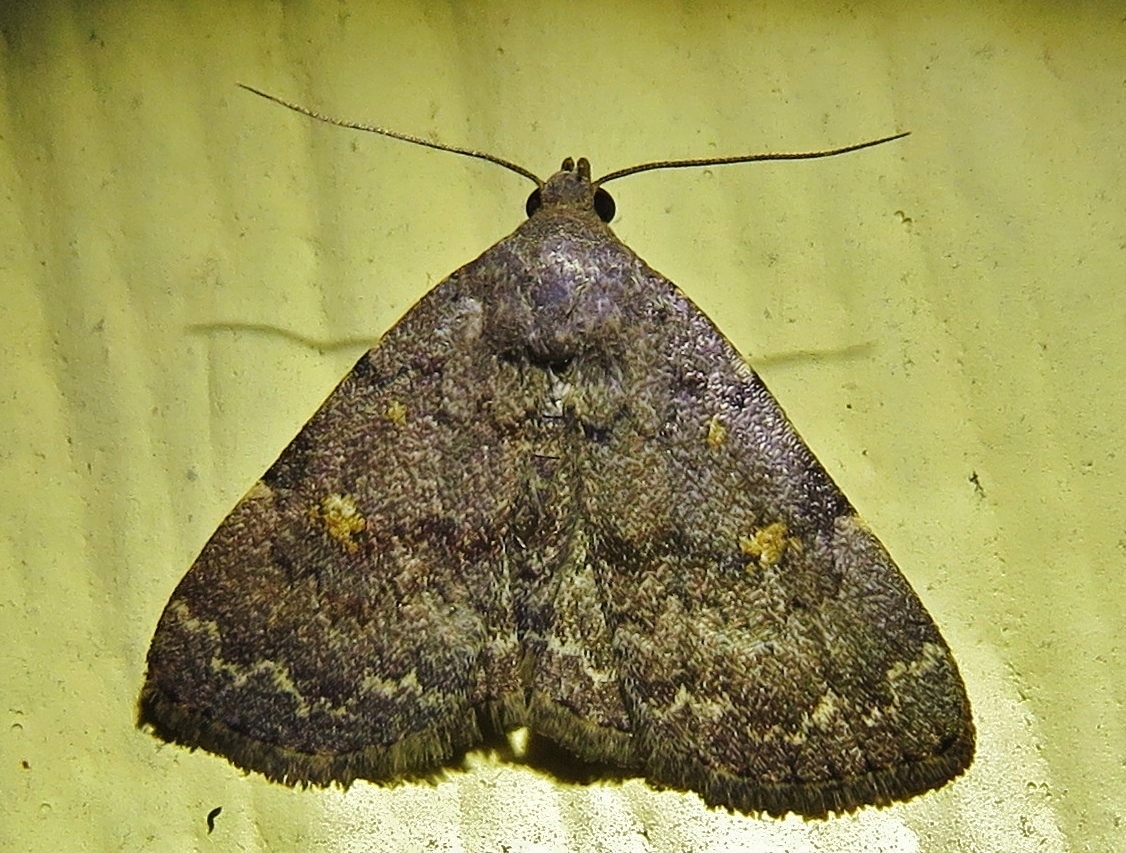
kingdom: Animalia
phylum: Arthropoda
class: Insecta
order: Lepidoptera
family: Erebidae
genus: Idia
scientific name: Idia aemula
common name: Common idia moth
